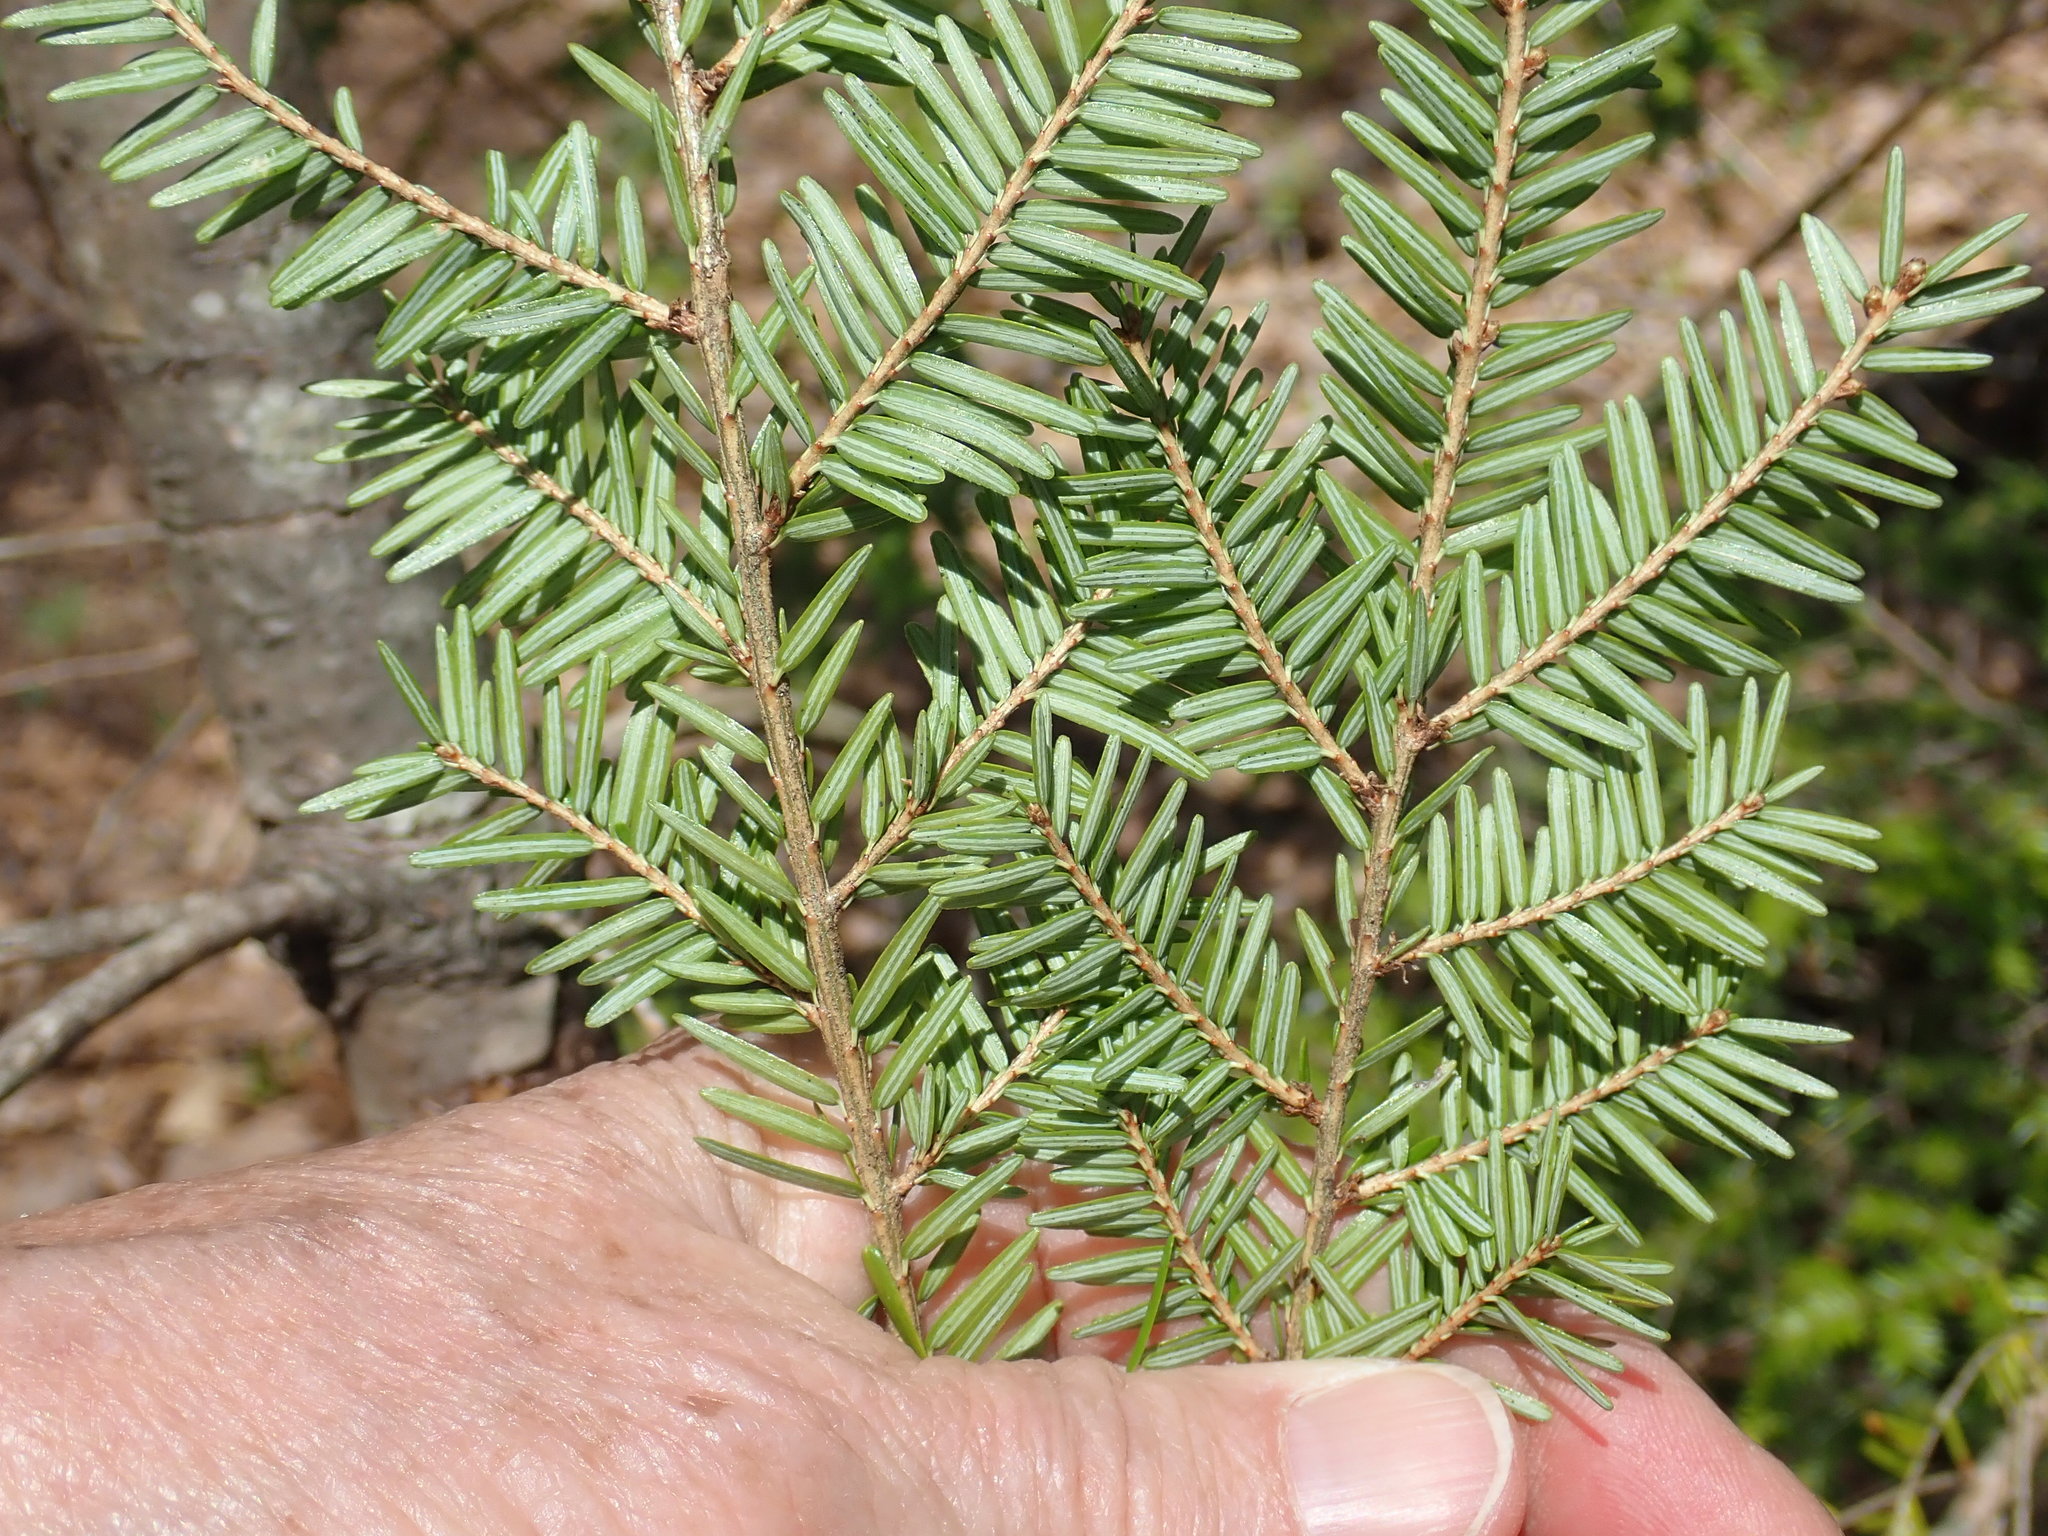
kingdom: Plantae
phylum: Tracheophyta
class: Pinopsida
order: Pinales
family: Pinaceae
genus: Tsuga
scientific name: Tsuga canadensis
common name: Eastern hemlock
